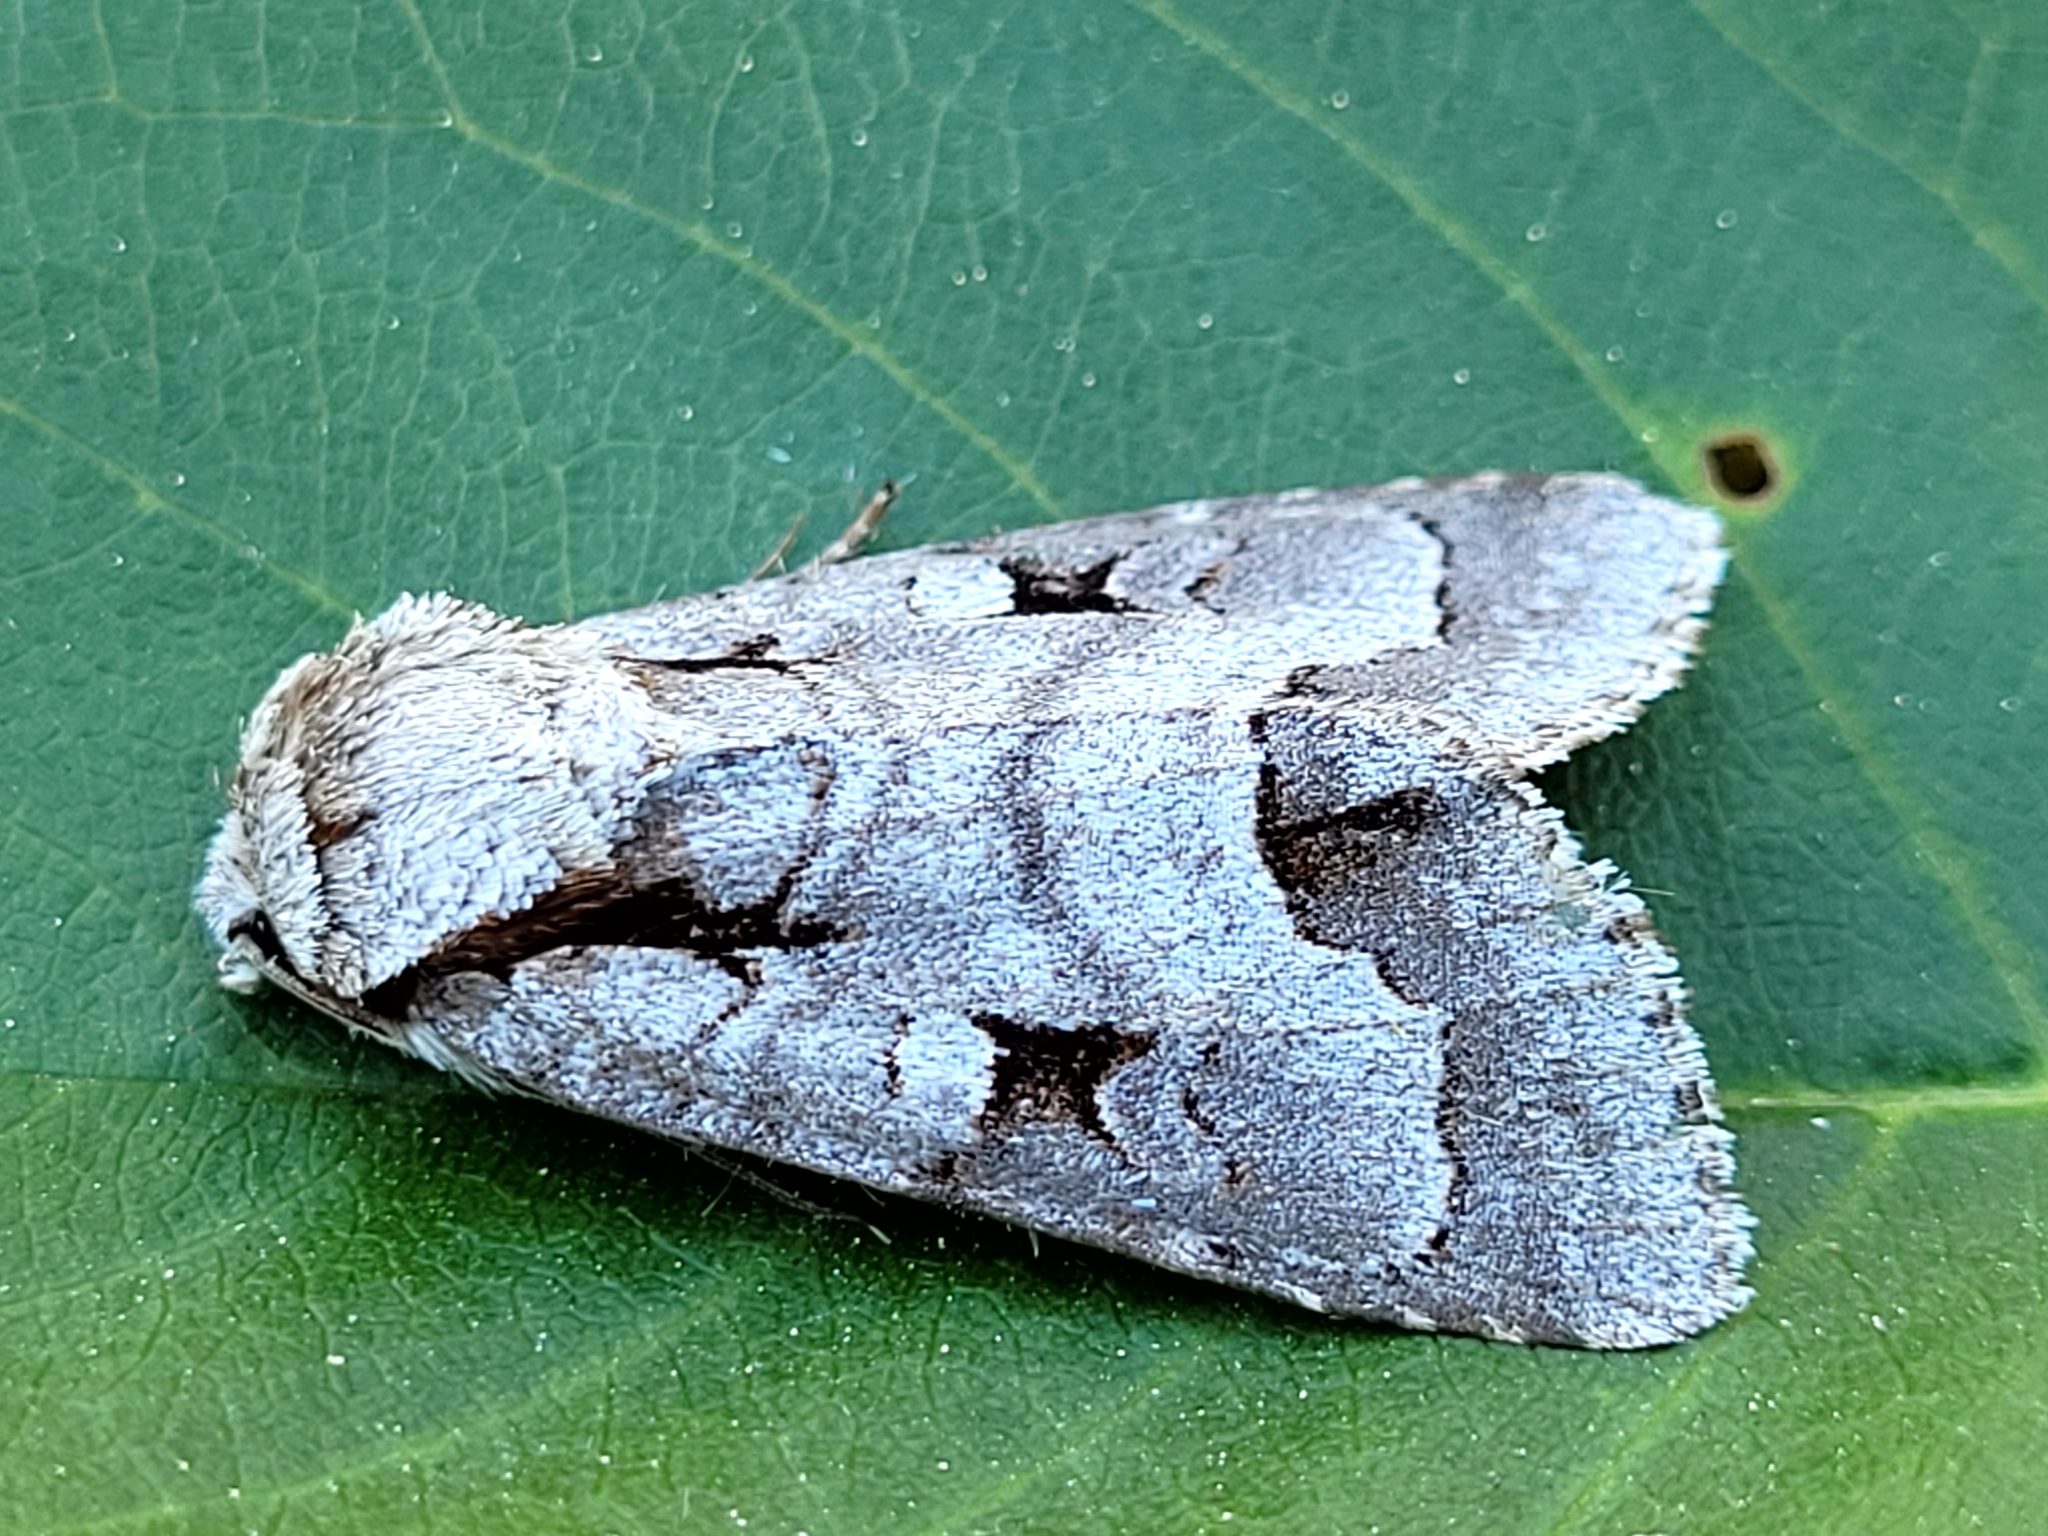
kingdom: Animalia
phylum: Arthropoda
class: Insecta
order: Lepidoptera
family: Noctuidae
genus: Acronicta
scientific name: Acronicta quadrata
